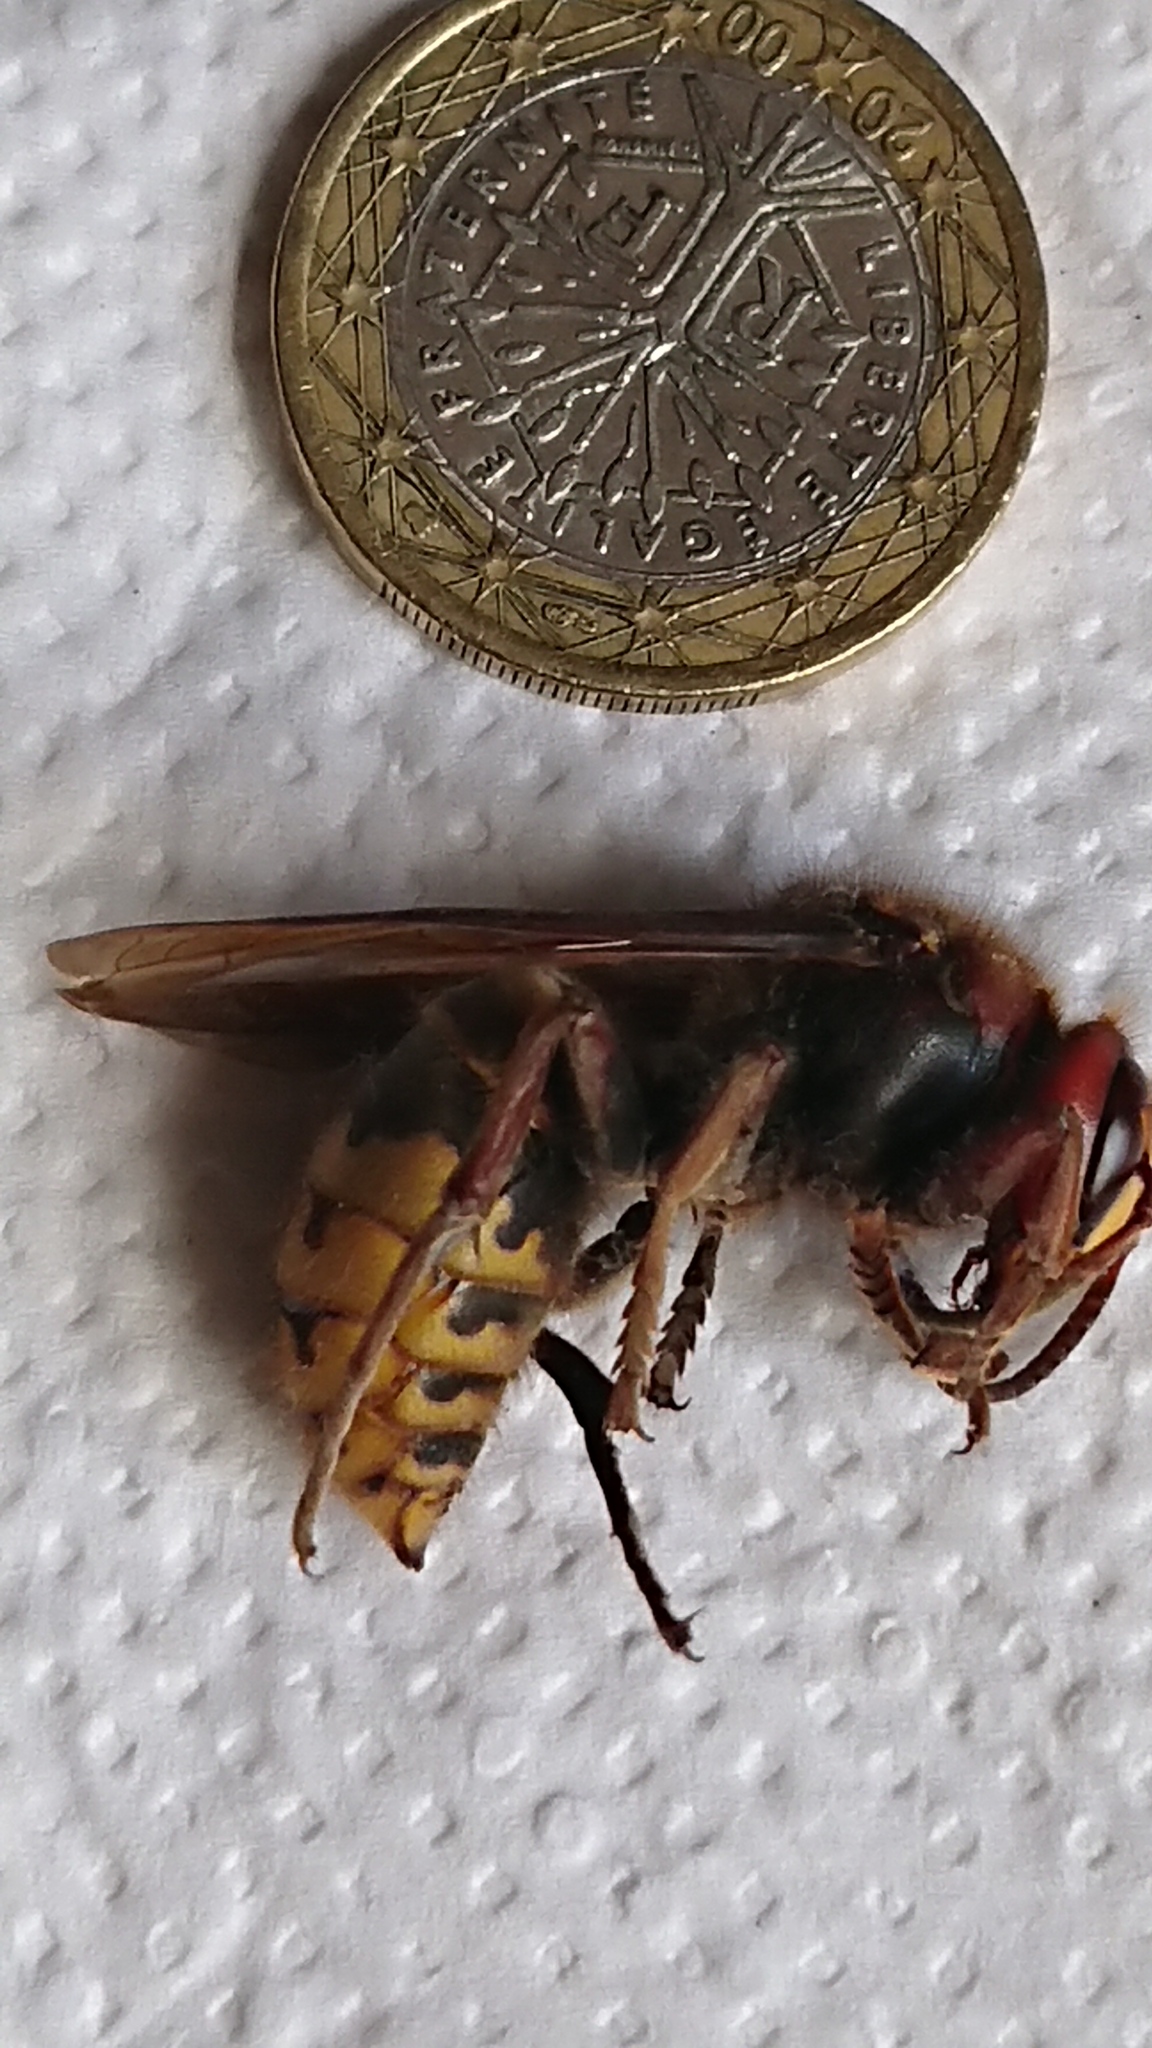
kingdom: Animalia
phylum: Arthropoda
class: Insecta
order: Hymenoptera
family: Vespidae
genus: Vespa
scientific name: Vespa crabro
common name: Hornet
